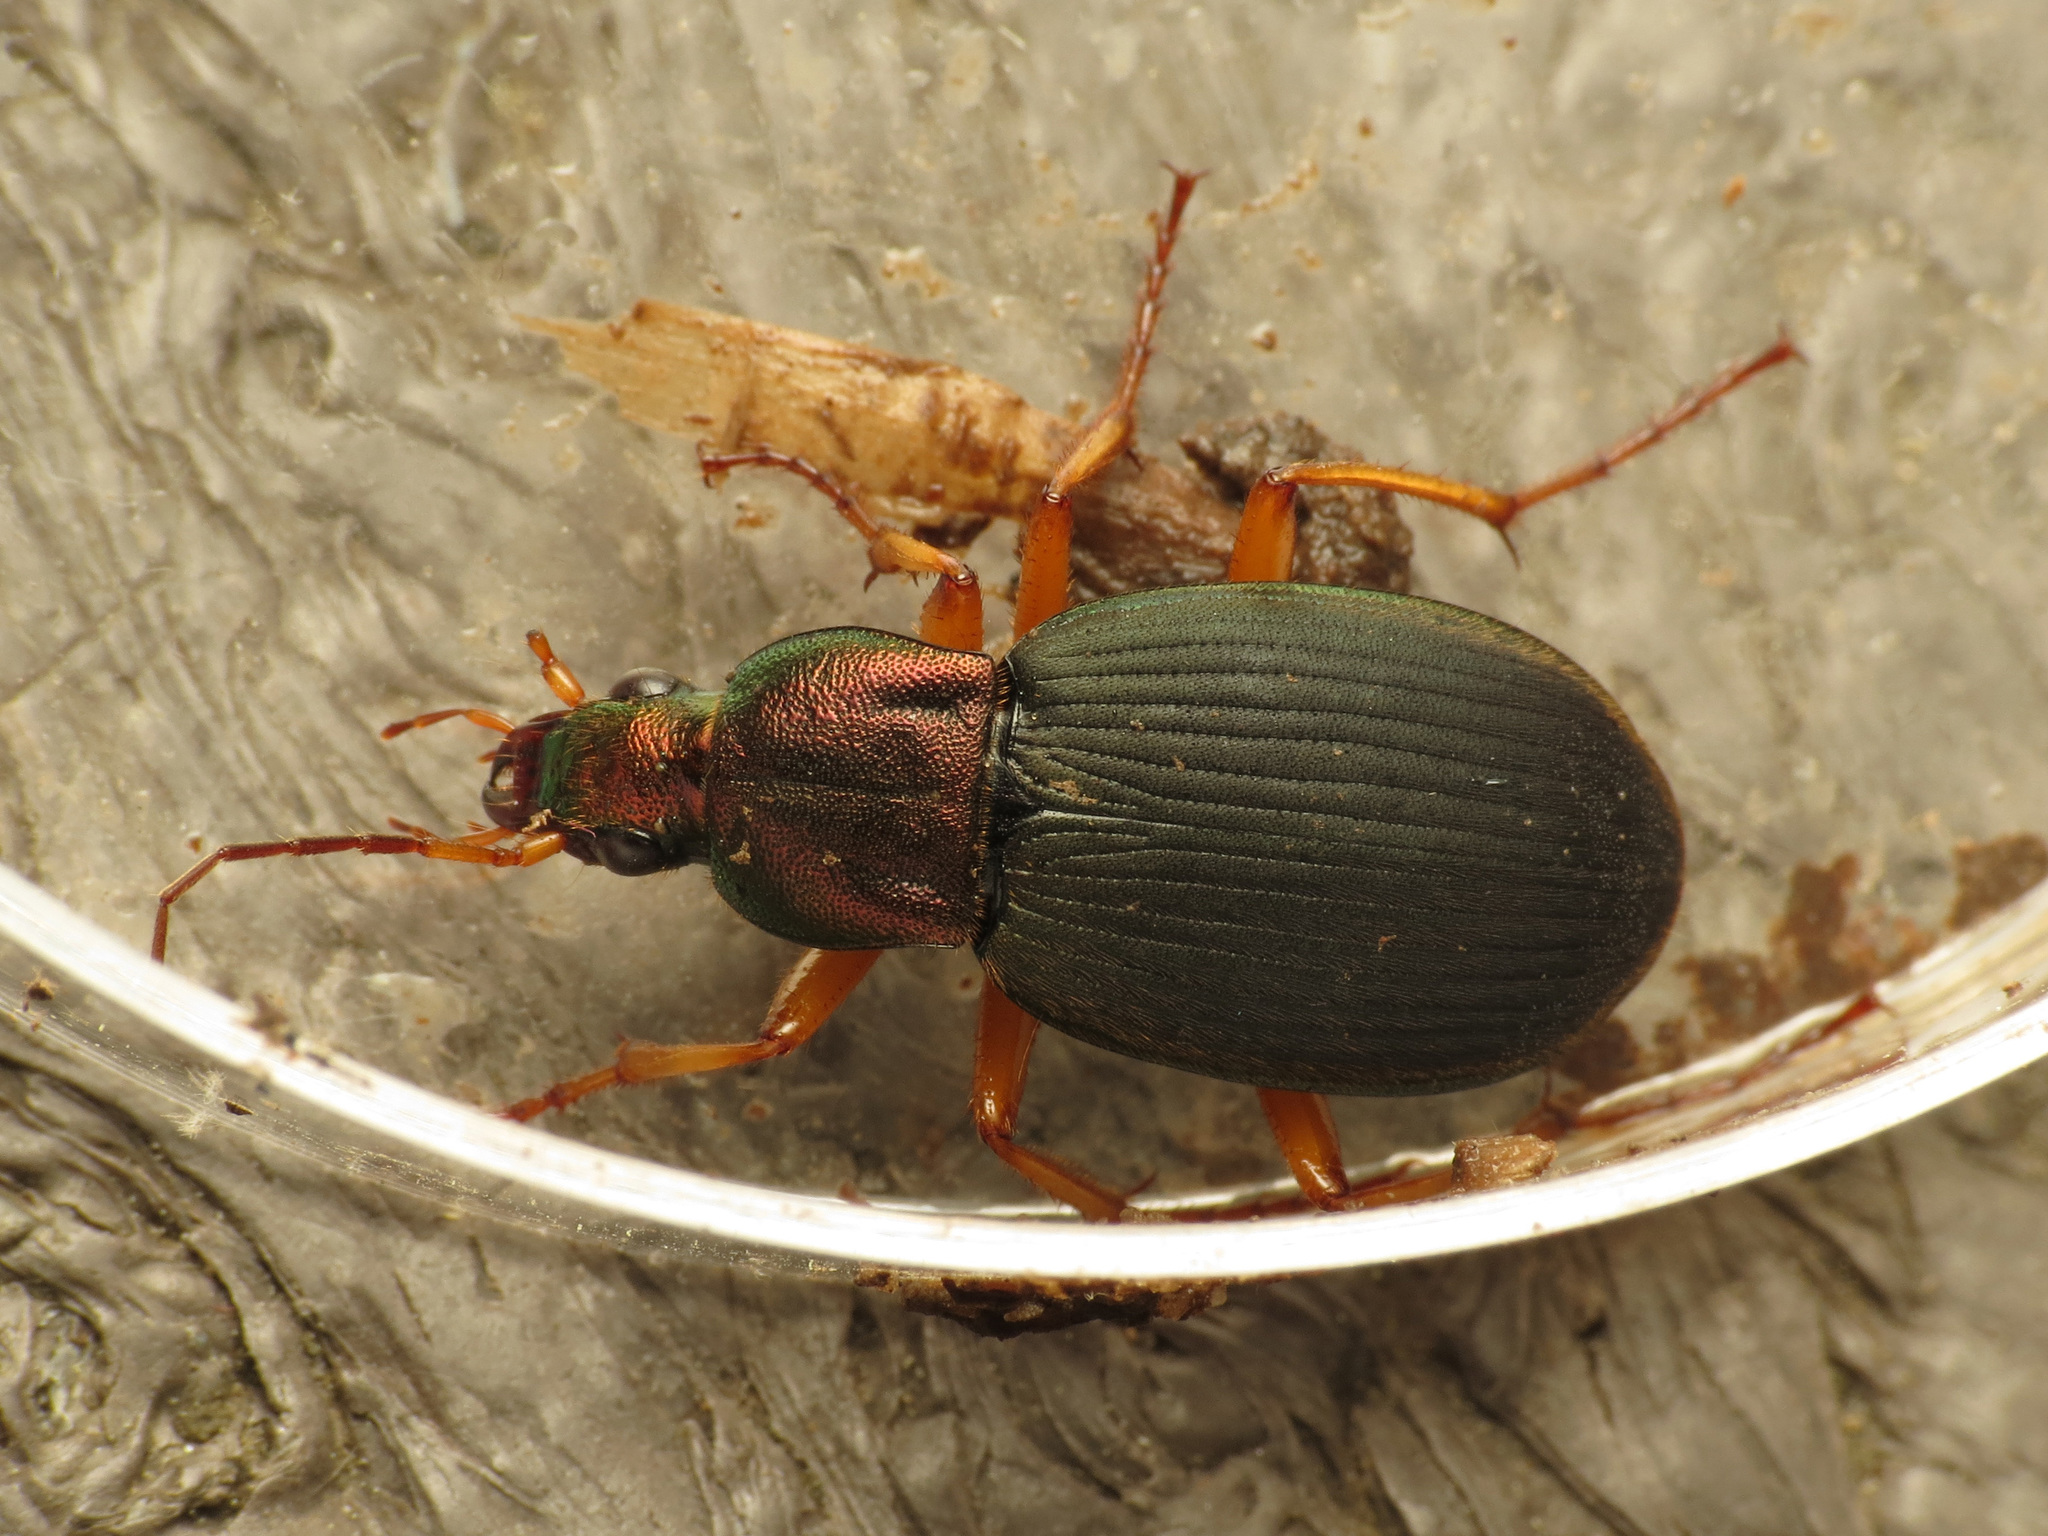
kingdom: Animalia
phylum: Arthropoda
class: Insecta
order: Coleoptera
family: Carabidae
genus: Chlaenius
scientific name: Chlaenius aestivus
